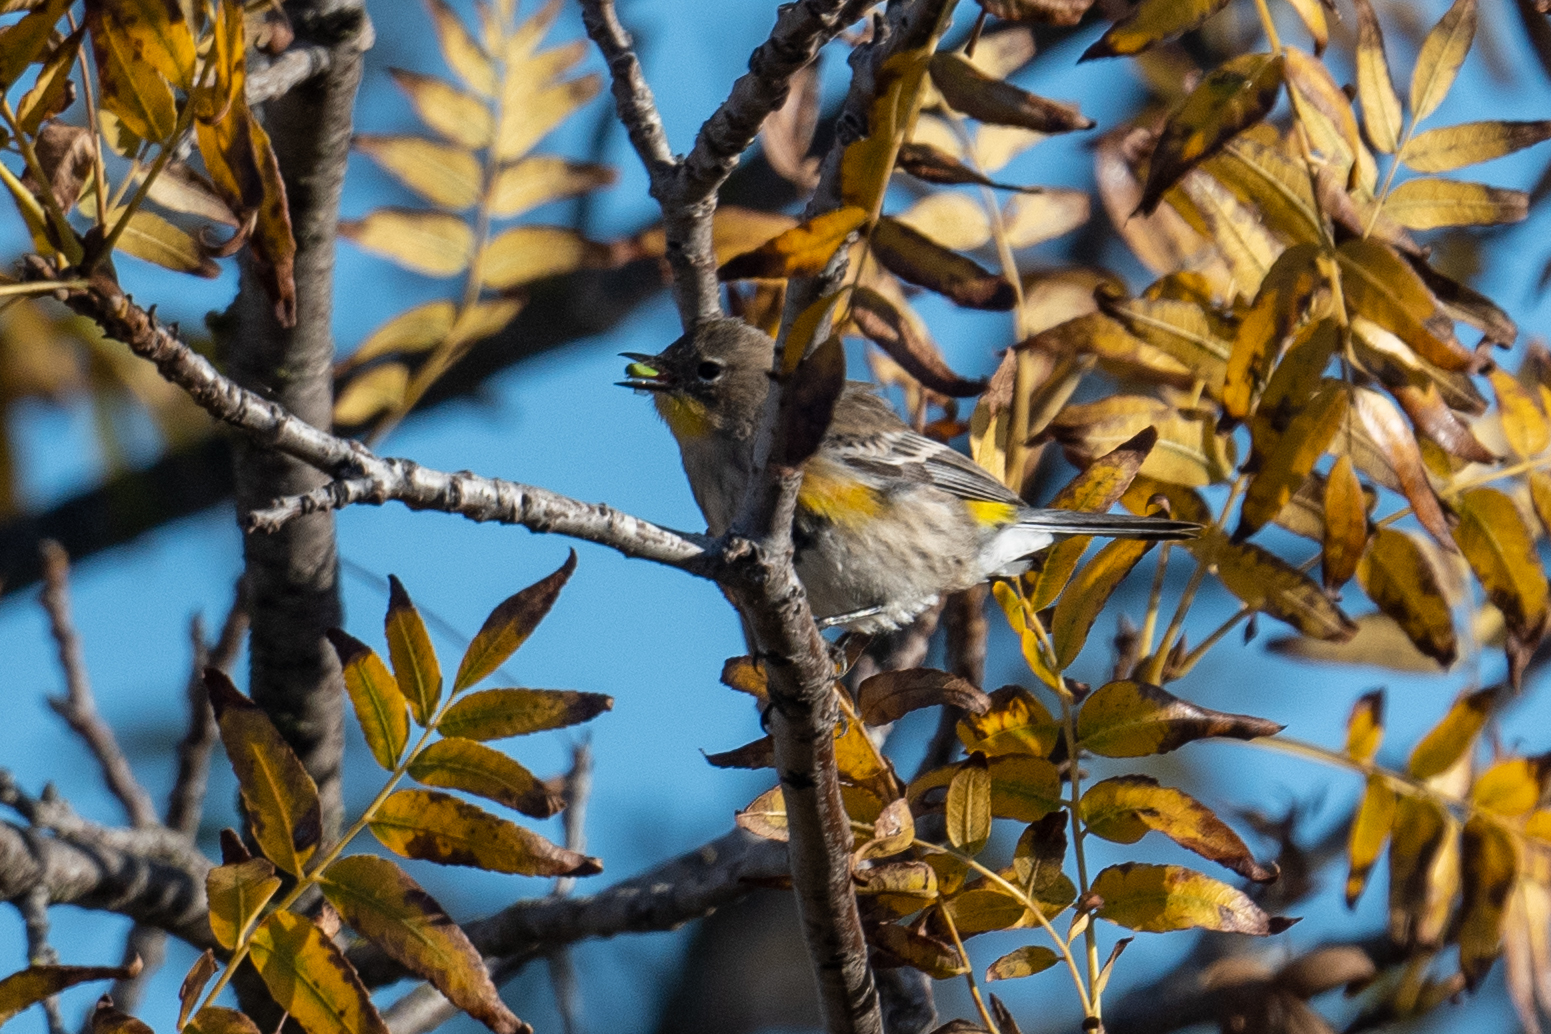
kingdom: Animalia
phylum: Chordata
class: Aves
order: Passeriformes
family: Parulidae
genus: Setophaga
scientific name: Setophaga coronata
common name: Myrtle warbler
